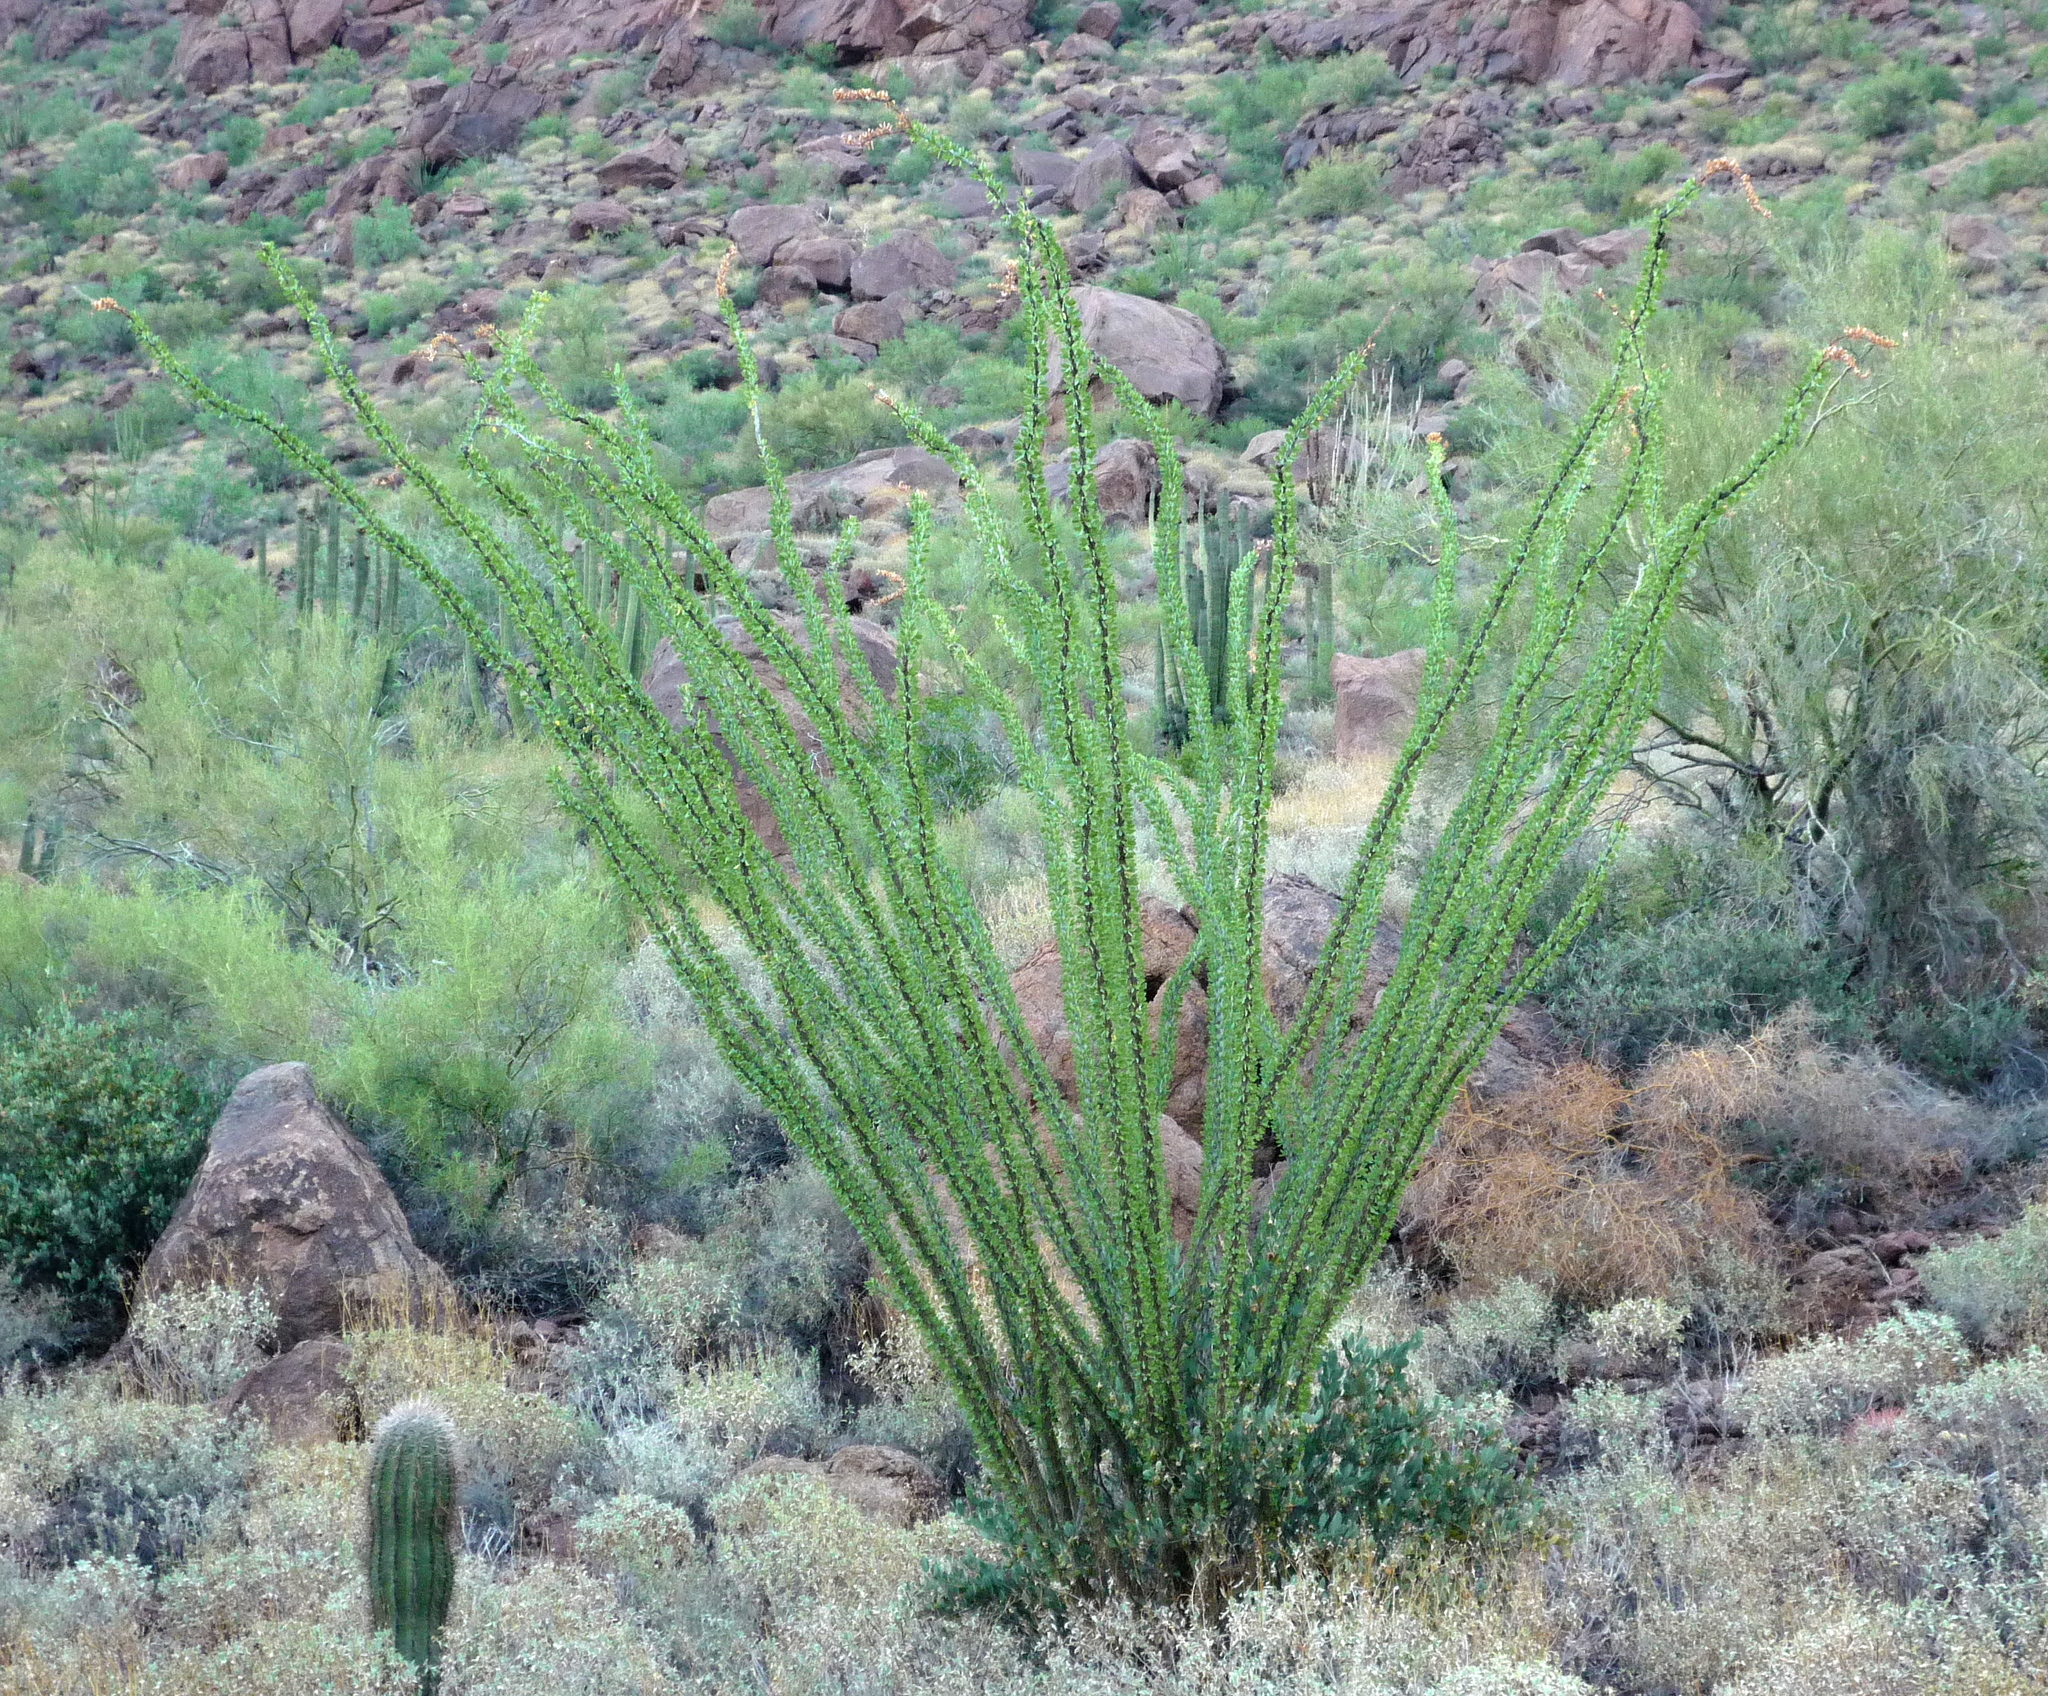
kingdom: Plantae
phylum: Tracheophyta
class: Magnoliopsida
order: Ericales
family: Fouquieriaceae
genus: Fouquieria
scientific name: Fouquieria splendens
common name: Vine-cactus
